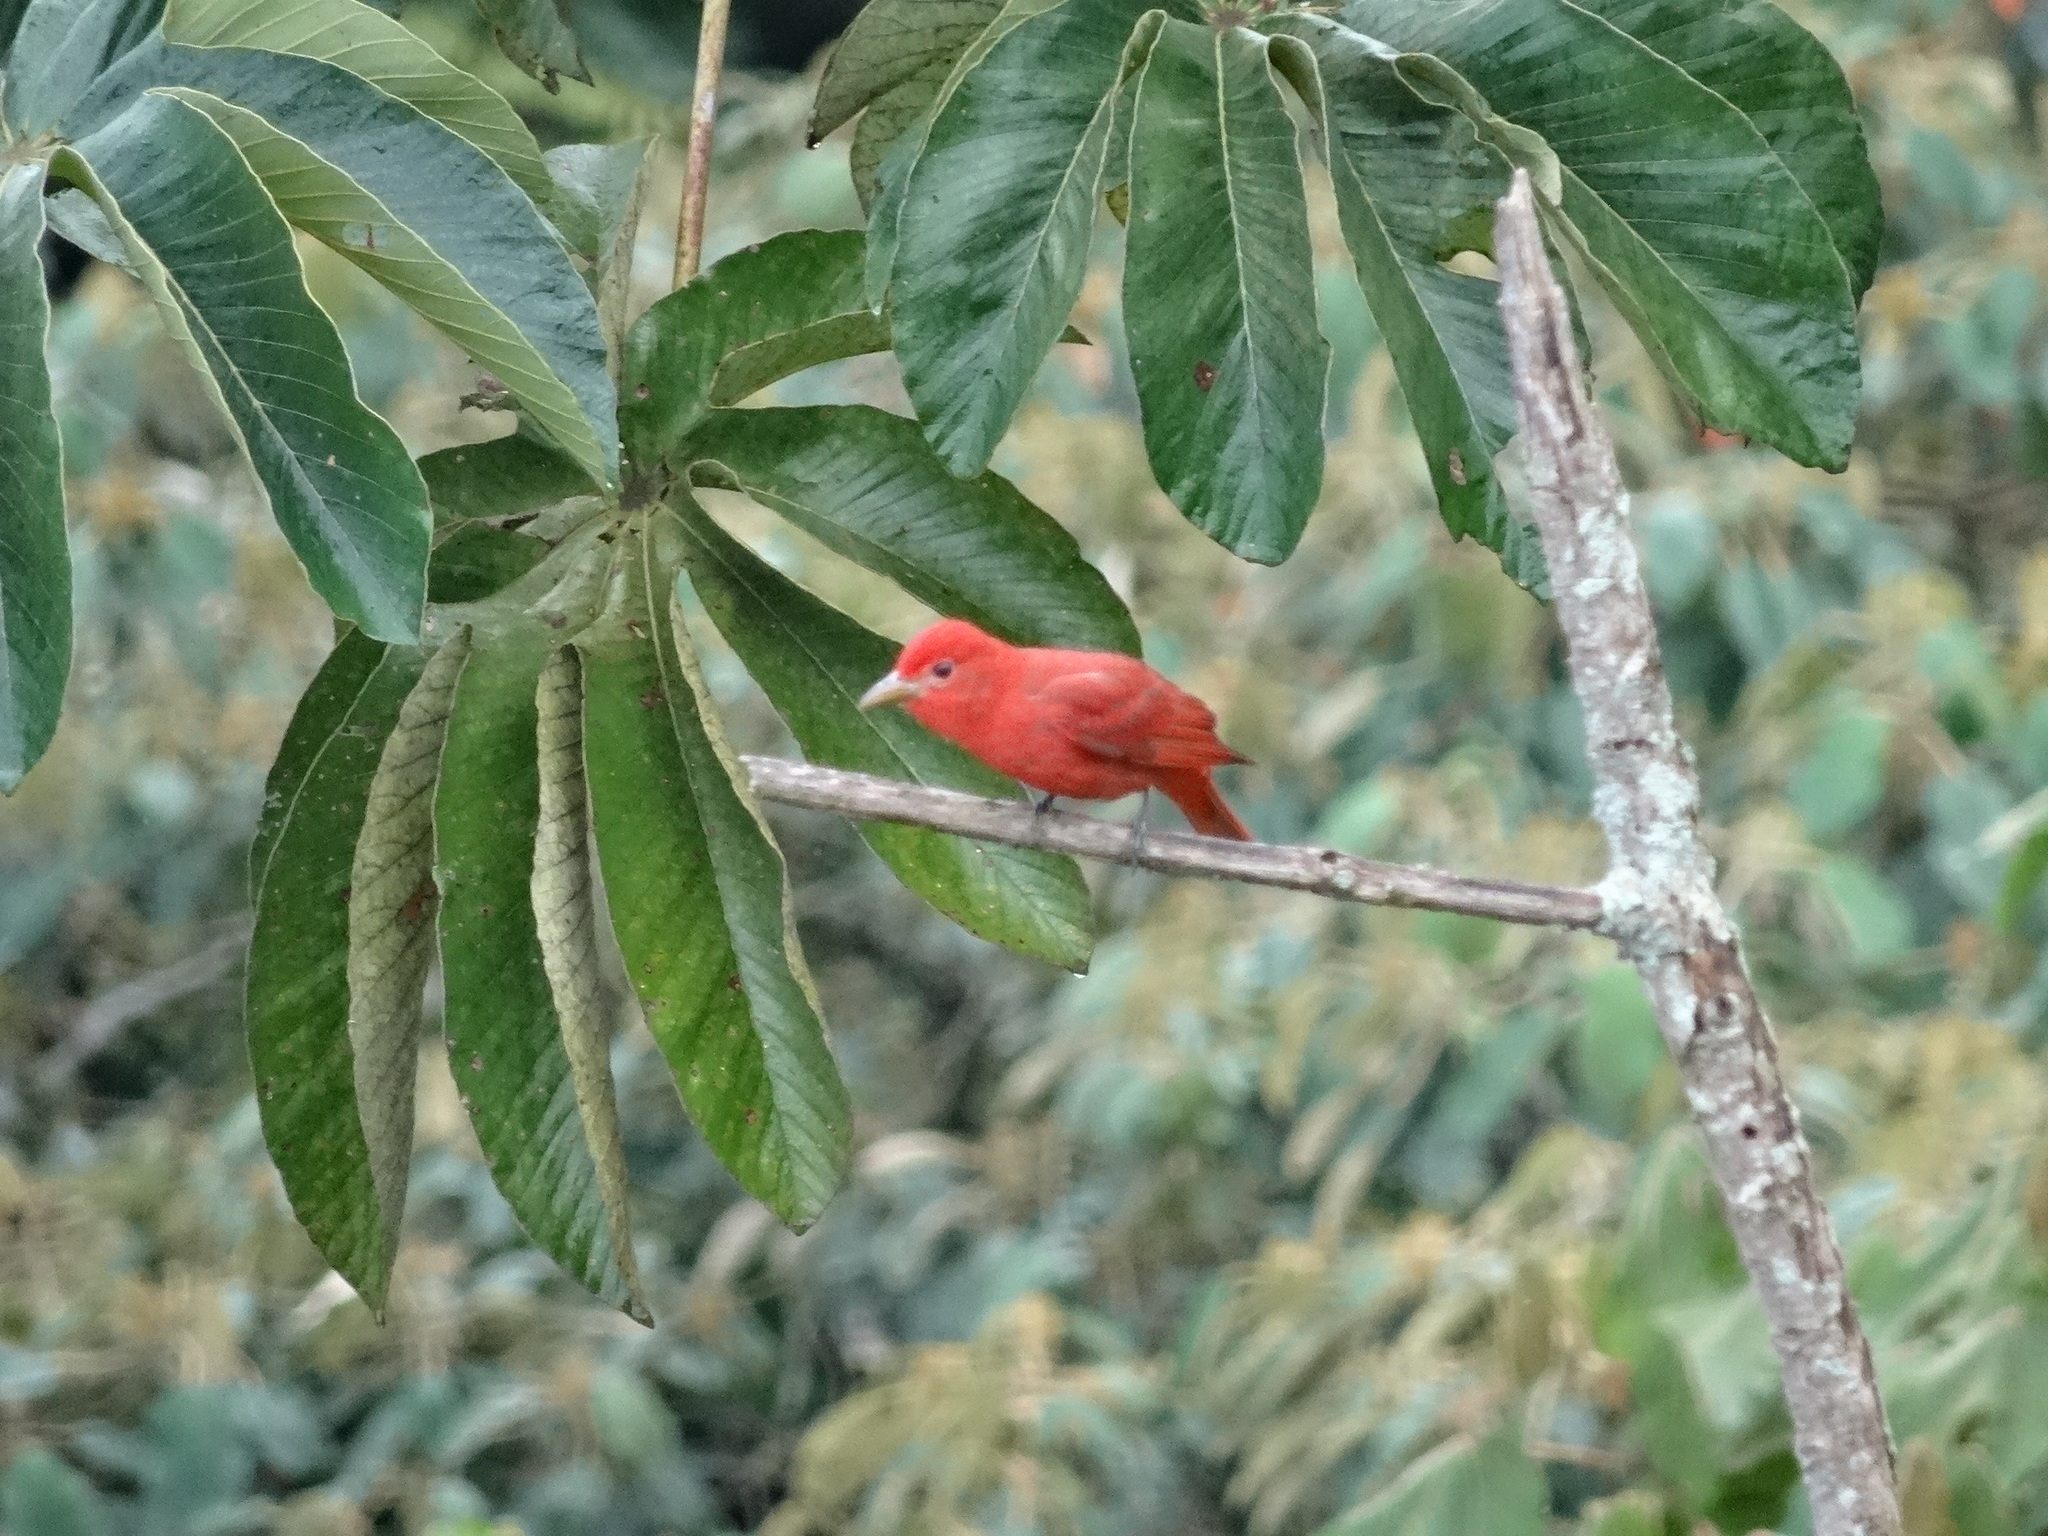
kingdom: Animalia
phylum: Chordata
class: Aves
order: Passeriformes
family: Cardinalidae
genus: Piranga
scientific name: Piranga rubra
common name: Summer tanager
